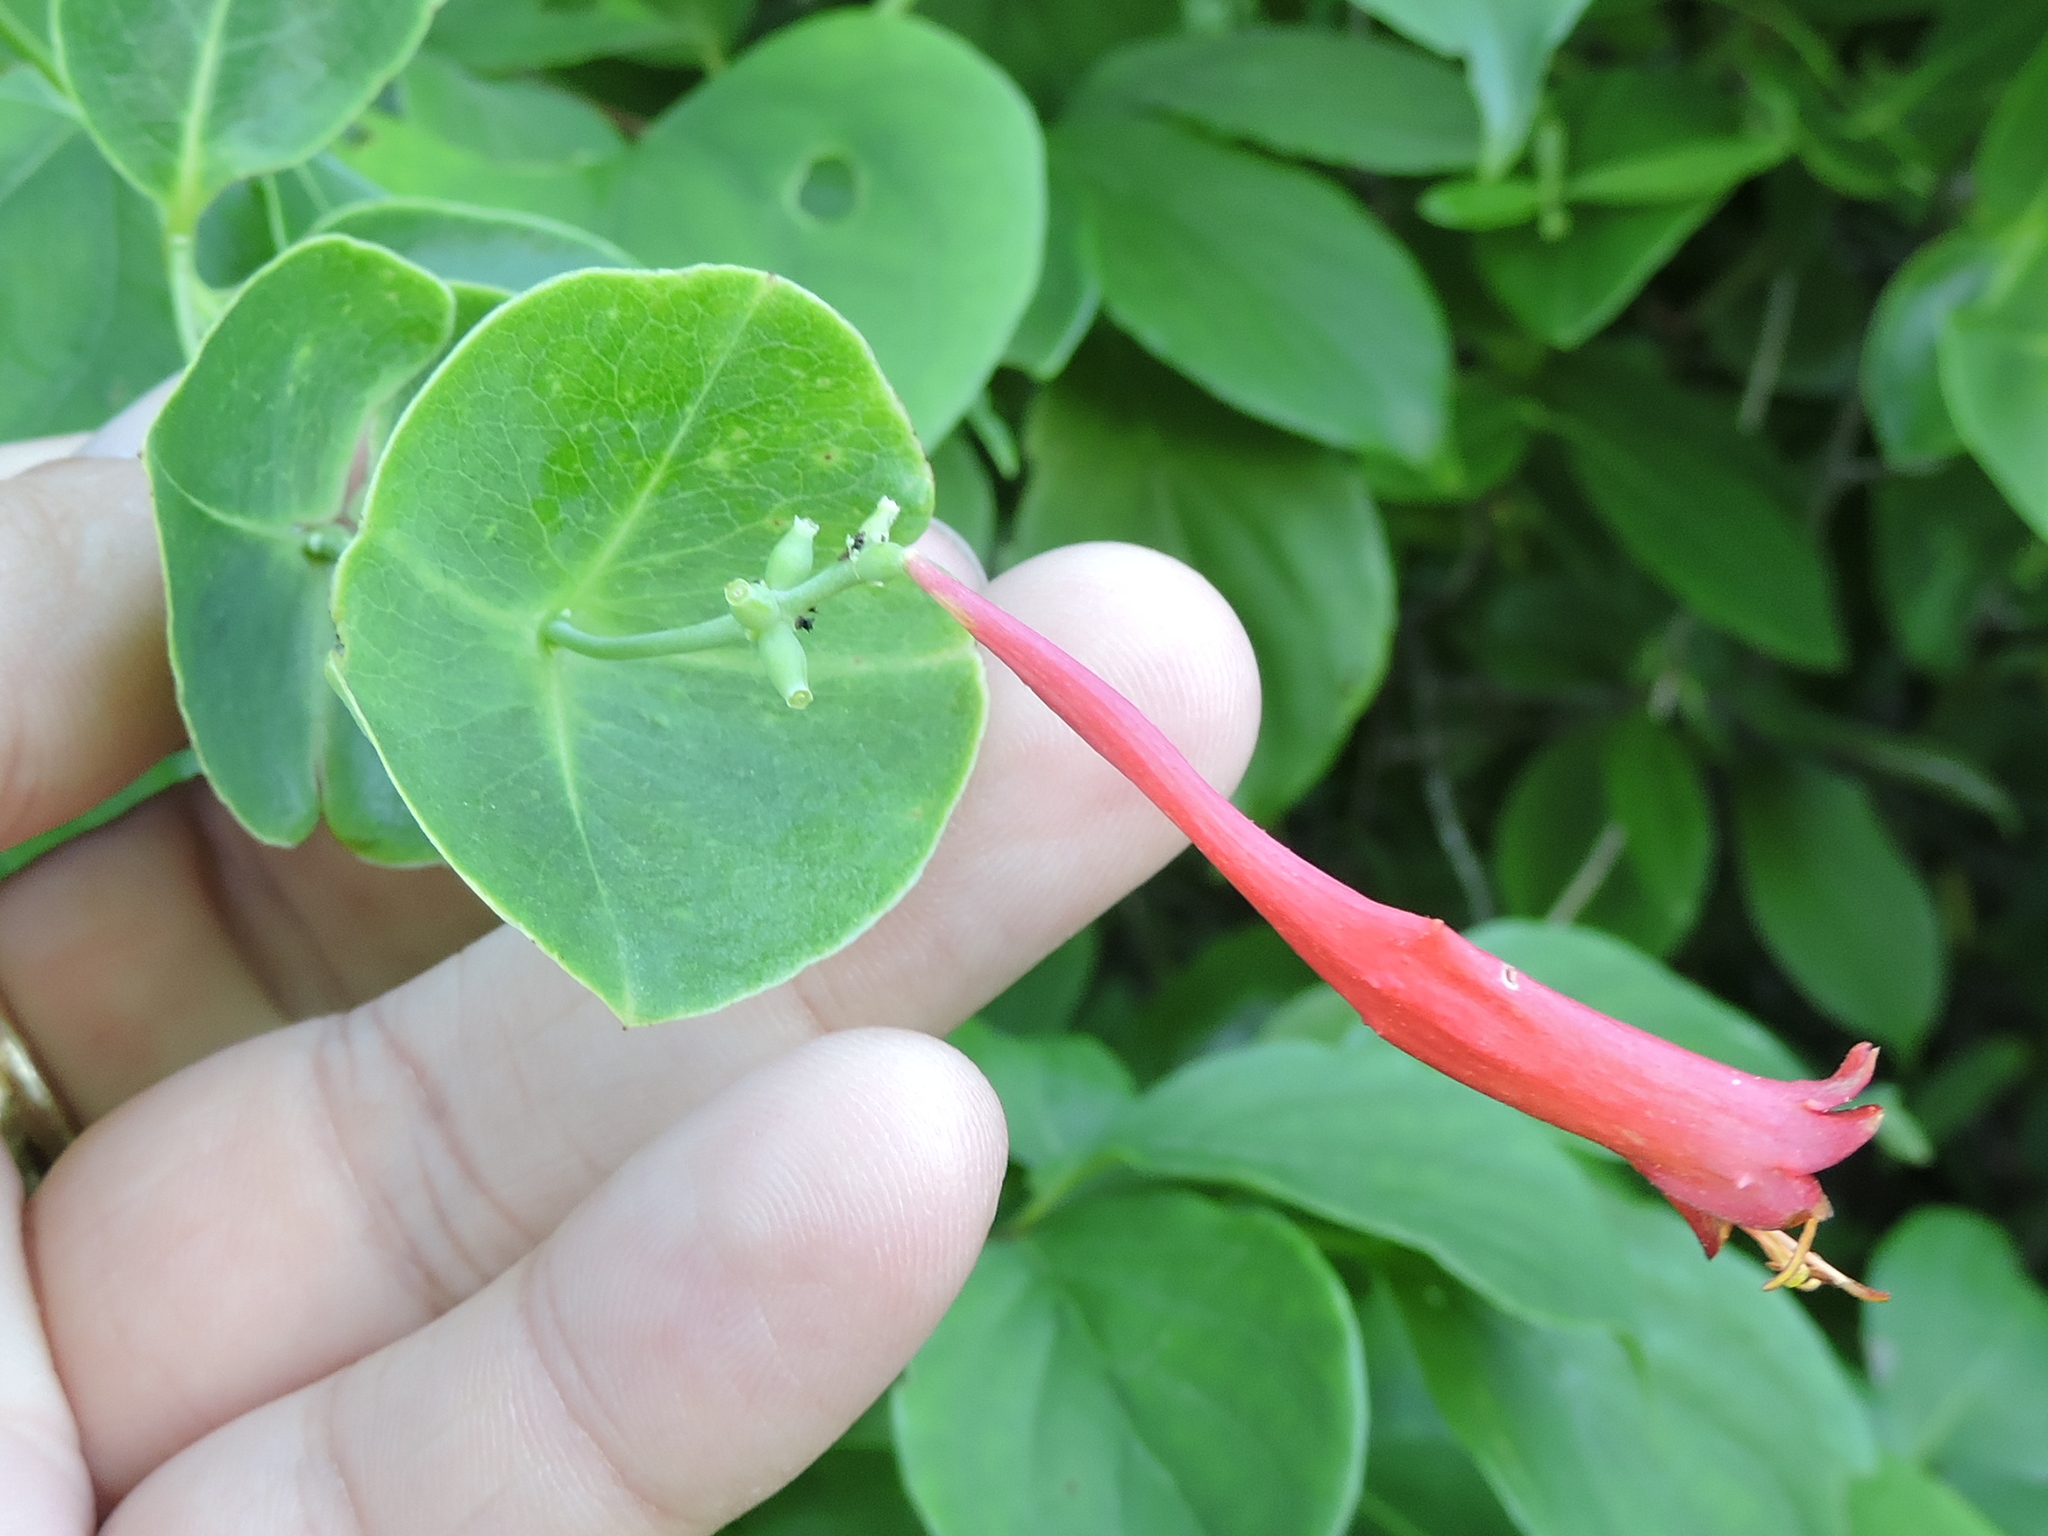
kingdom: Plantae
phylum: Tracheophyta
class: Magnoliopsida
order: Dipsacales
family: Caprifoliaceae
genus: Lonicera
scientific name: Lonicera sempervirens
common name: Coral honeysuckle
